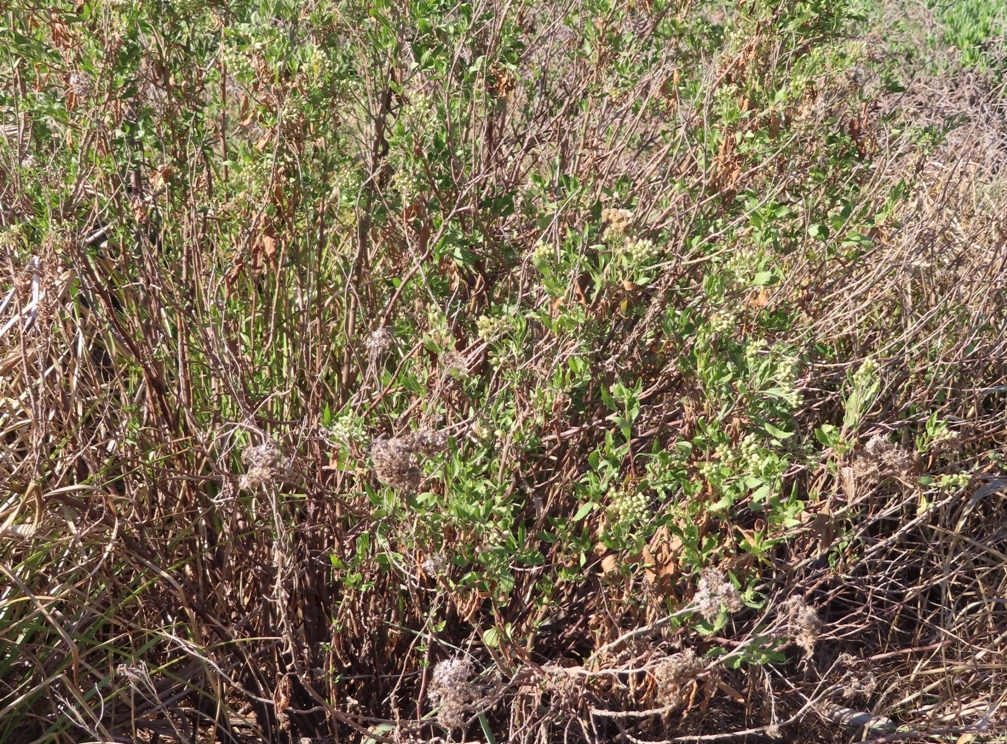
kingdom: Plantae
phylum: Tracheophyta
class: Magnoliopsida
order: Asterales
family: Asteraceae
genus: Nidorella
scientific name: Nidorella ivifolia
